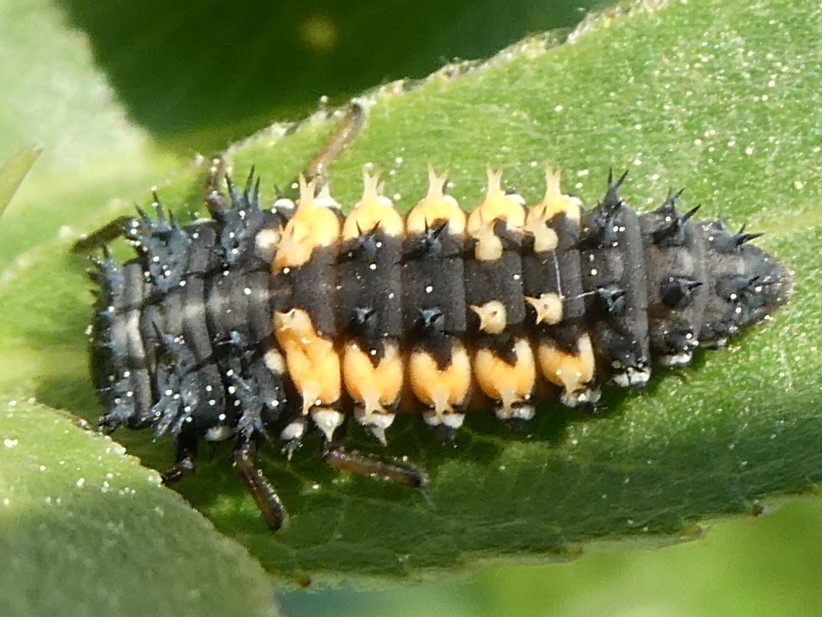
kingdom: Animalia
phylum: Arthropoda
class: Insecta
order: Coleoptera
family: Coccinellidae
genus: Harmonia
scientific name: Harmonia axyridis
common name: Harlequin ladybird
